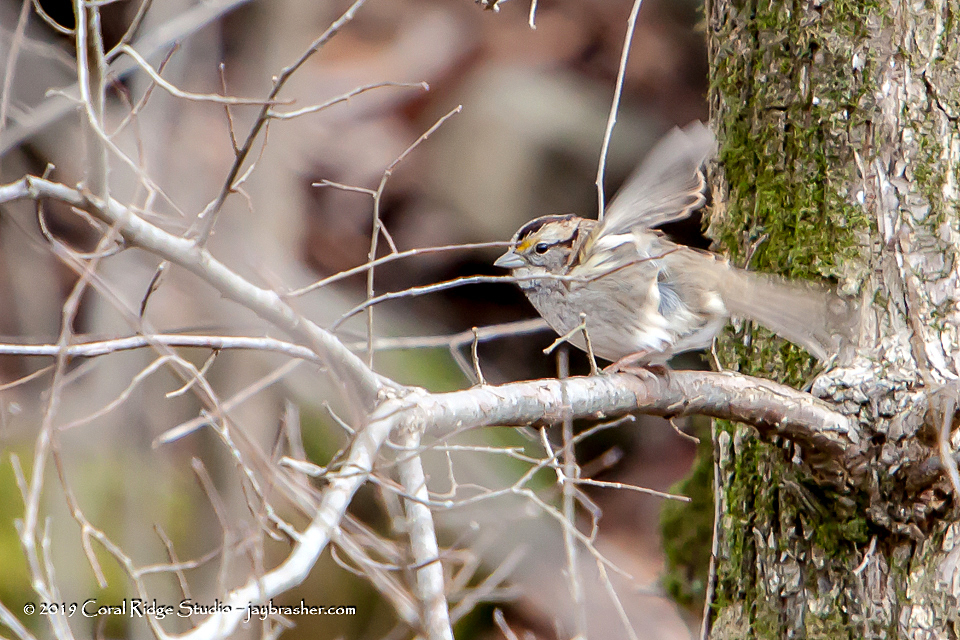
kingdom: Animalia
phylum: Chordata
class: Aves
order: Passeriformes
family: Passerellidae
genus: Zonotrichia
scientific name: Zonotrichia albicollis
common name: White-throated sparrow
